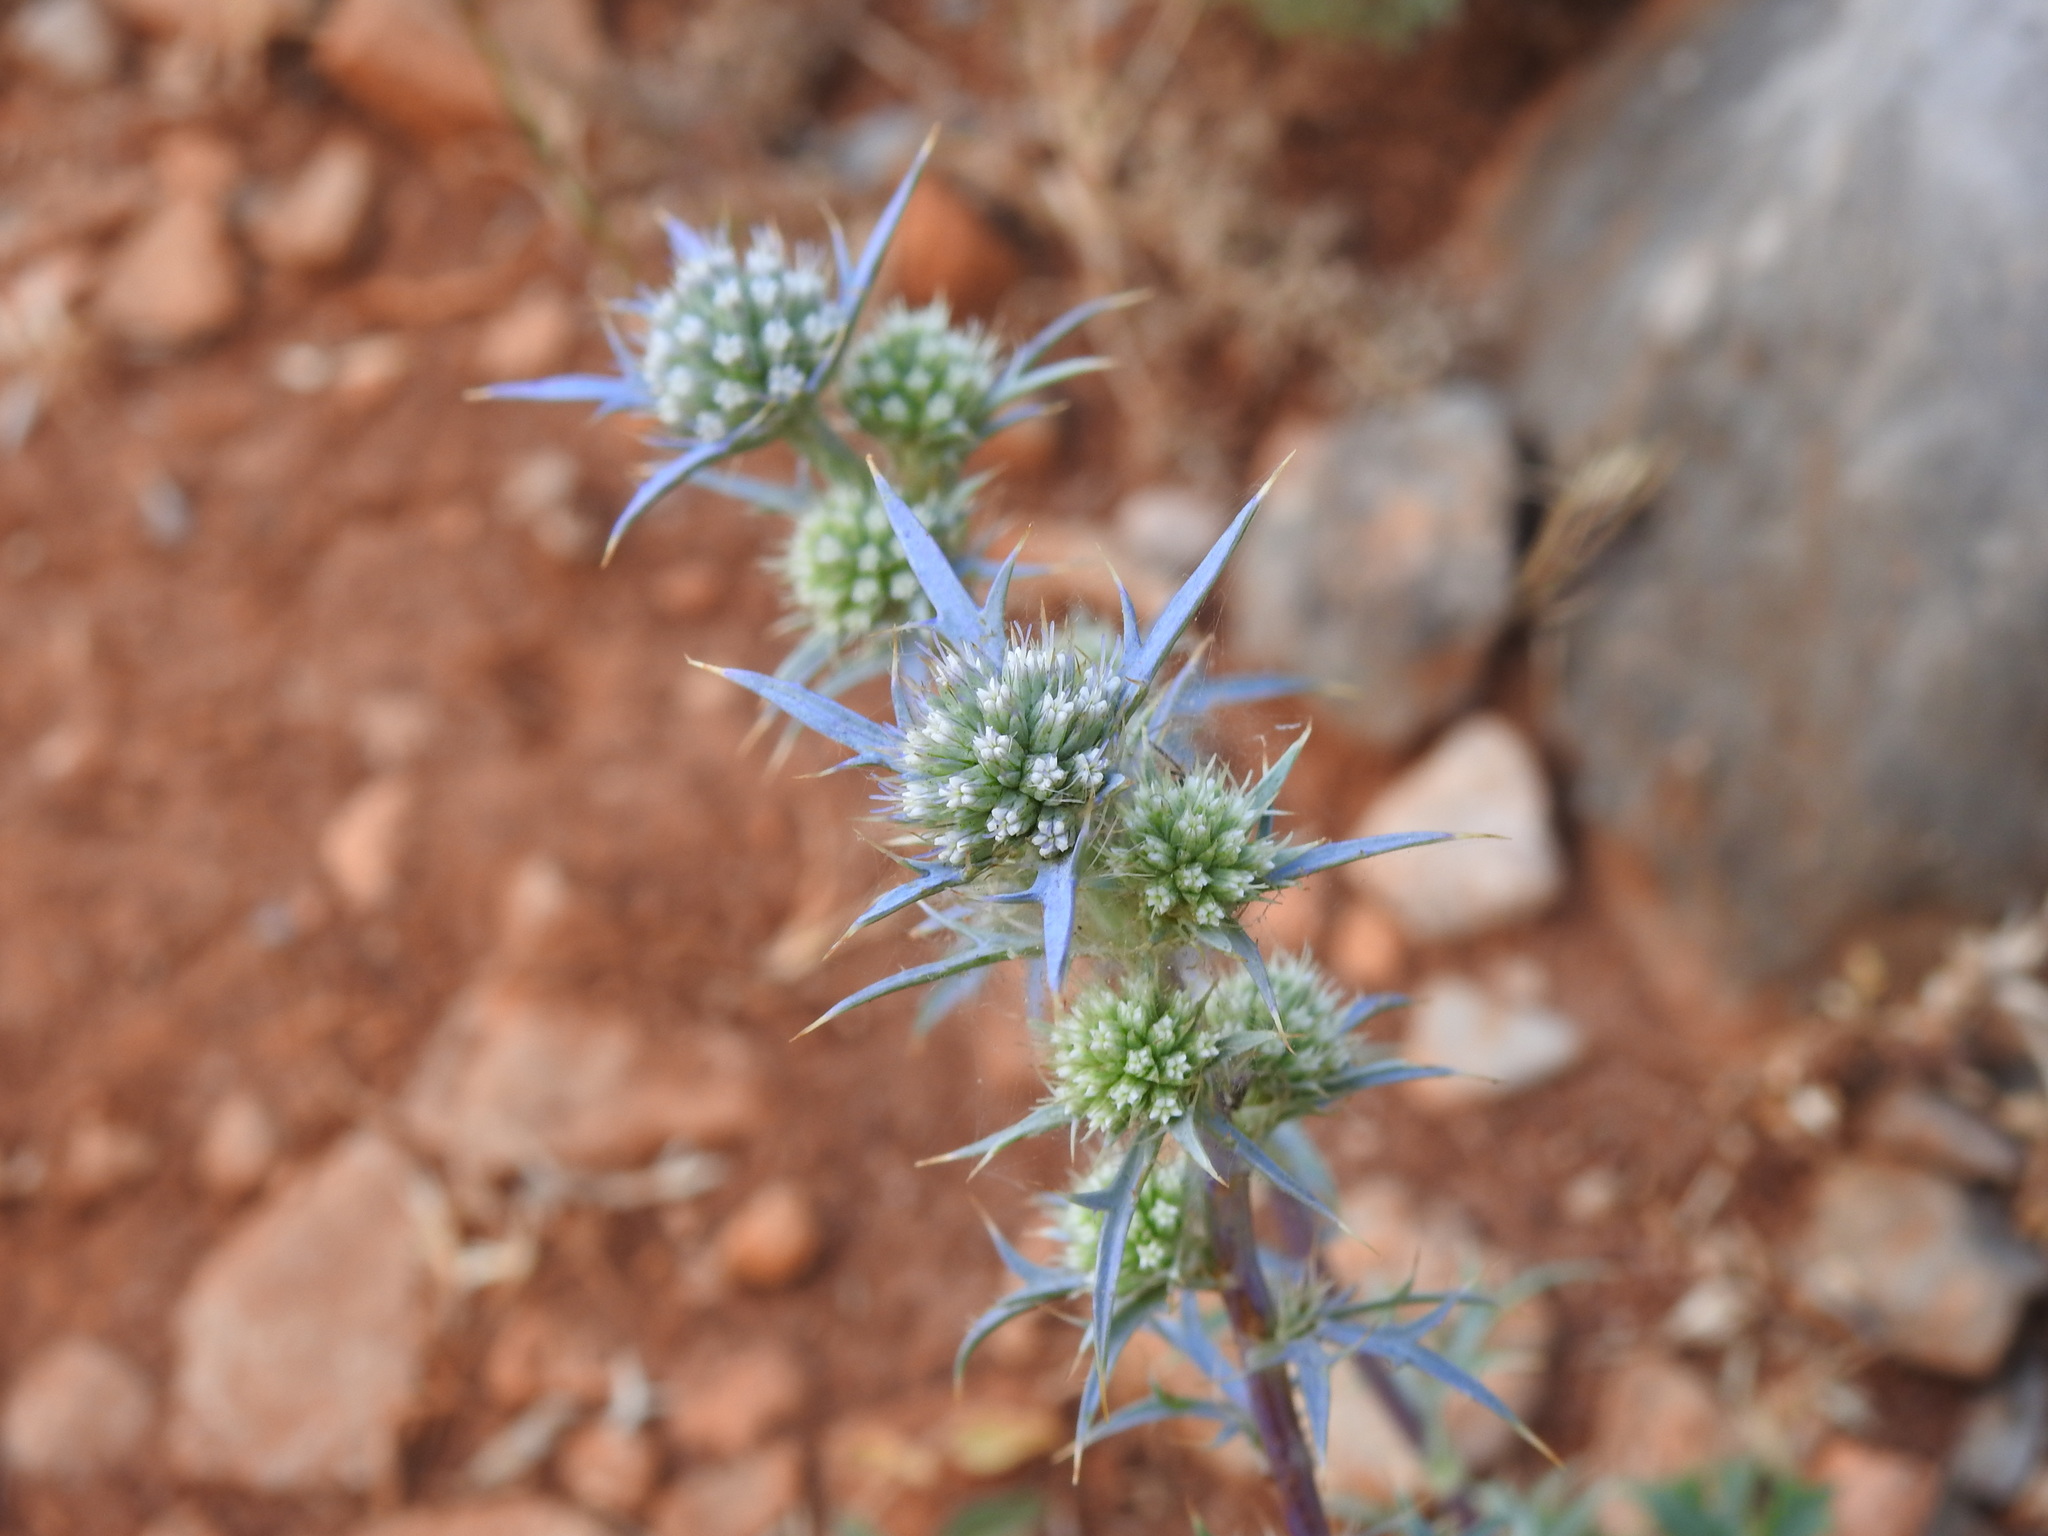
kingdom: Plantae
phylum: Tracheophyta
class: Magnoliopsida
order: Apiales
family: Apiaceae
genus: Eryngium
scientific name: Eryngium dilatatum
